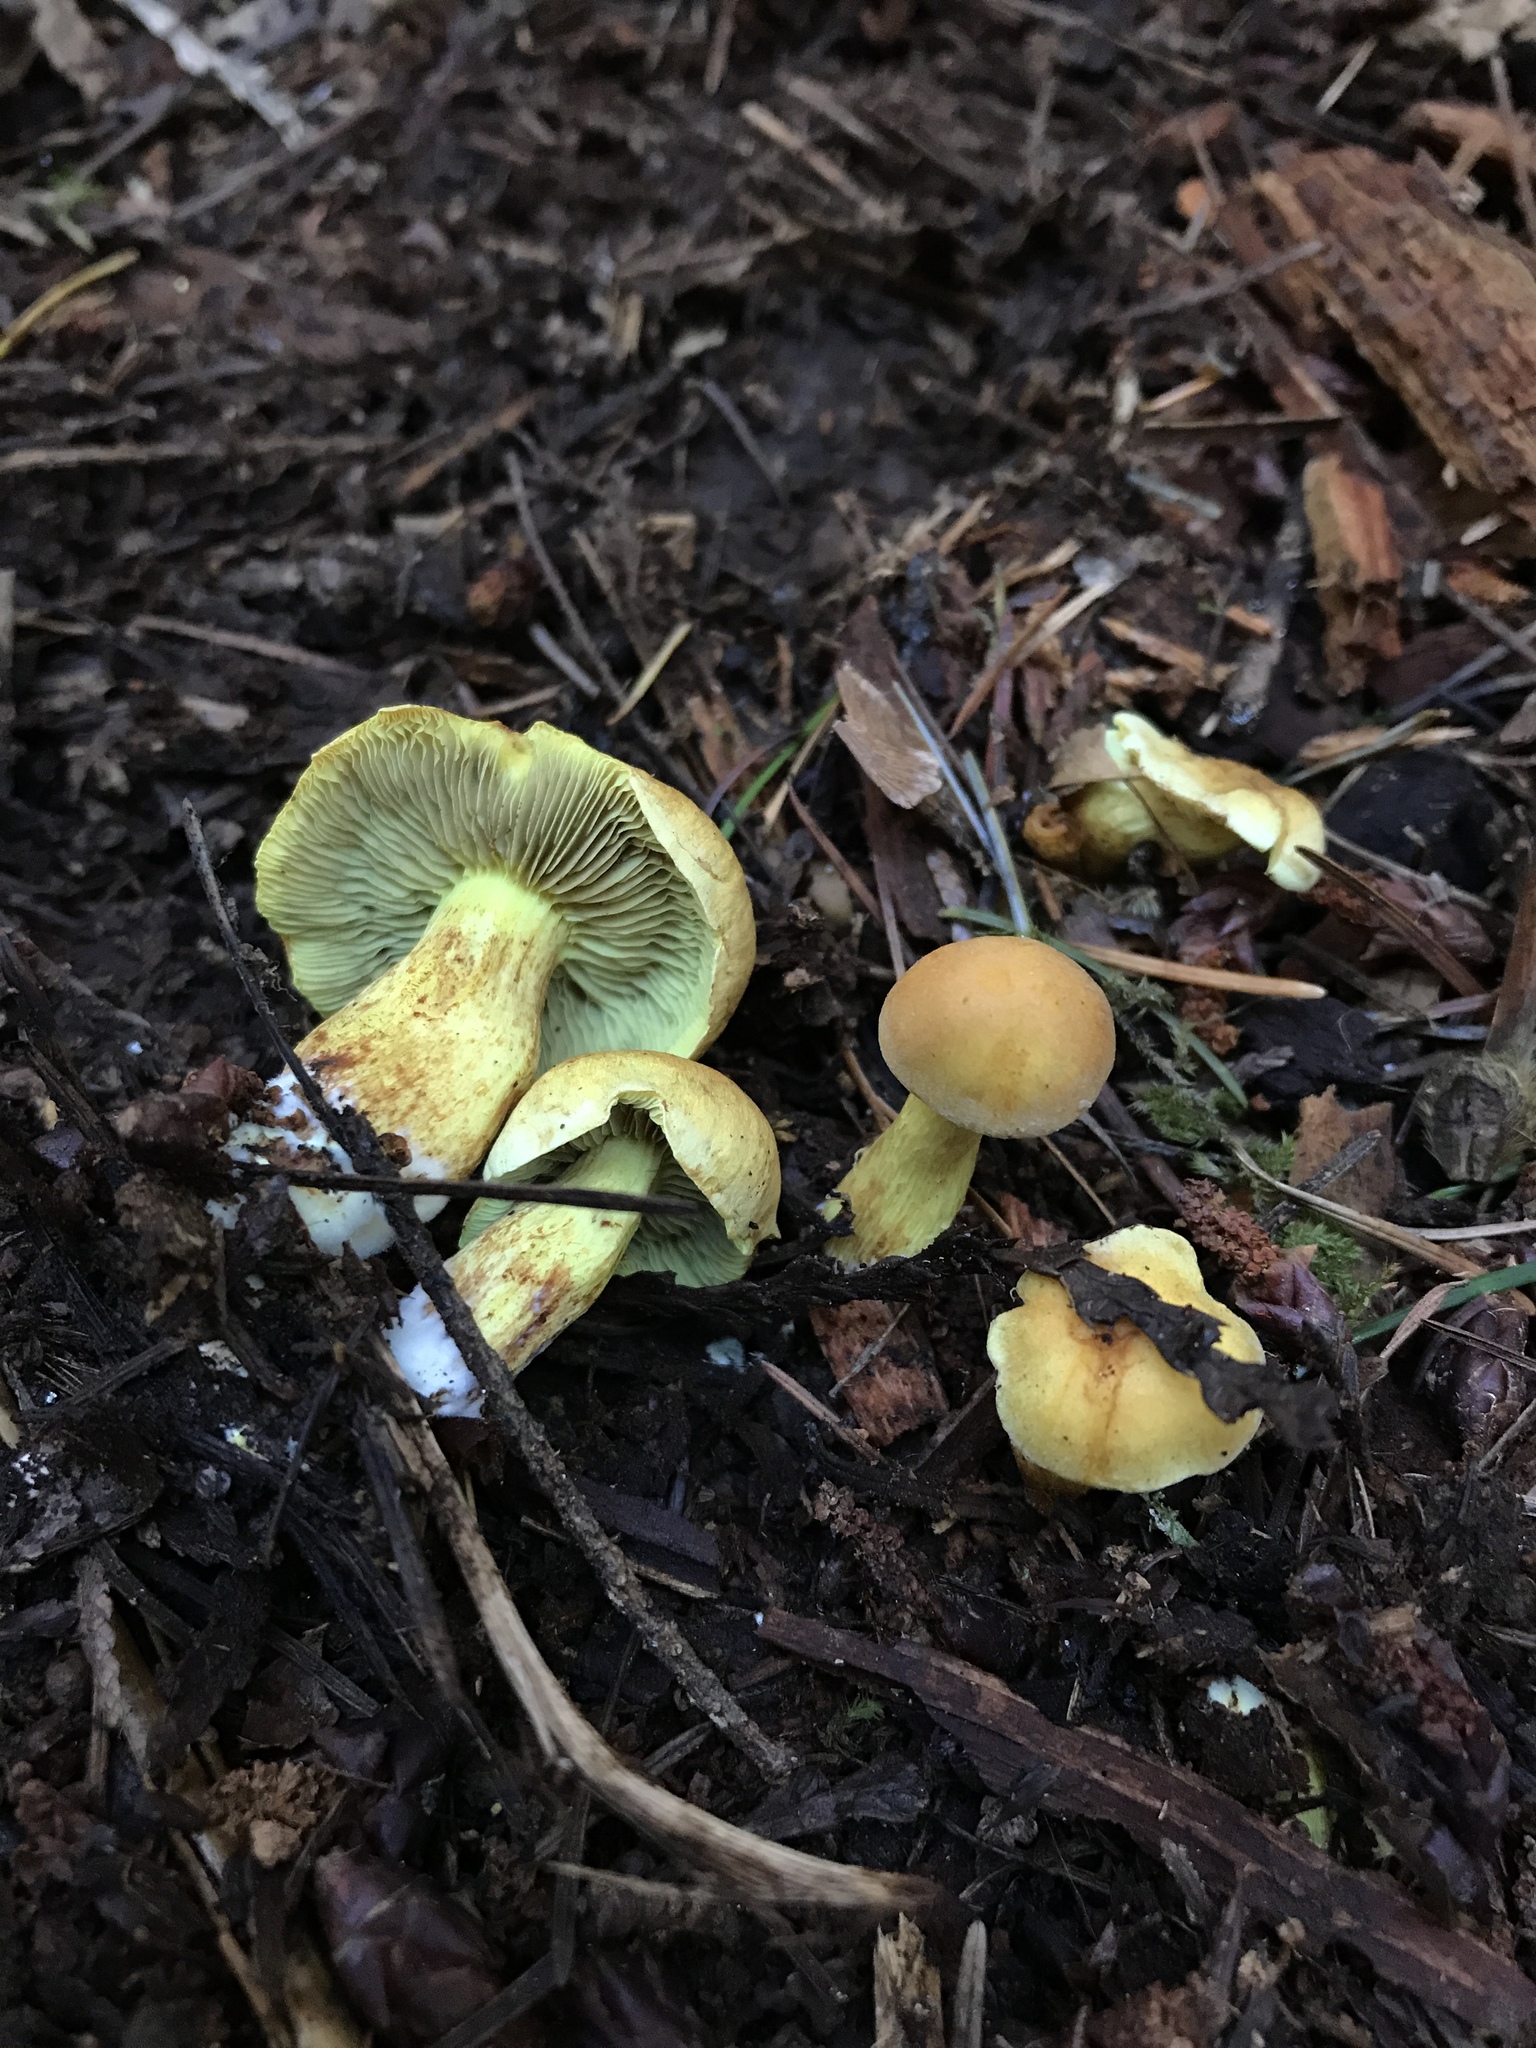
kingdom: Fungi
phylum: Basidiomycota
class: Agaricomycetes
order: Agaricales
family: Strophariaceae
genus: Hypholoma
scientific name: Hypholoma fasciculare
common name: Sulphur tuft
